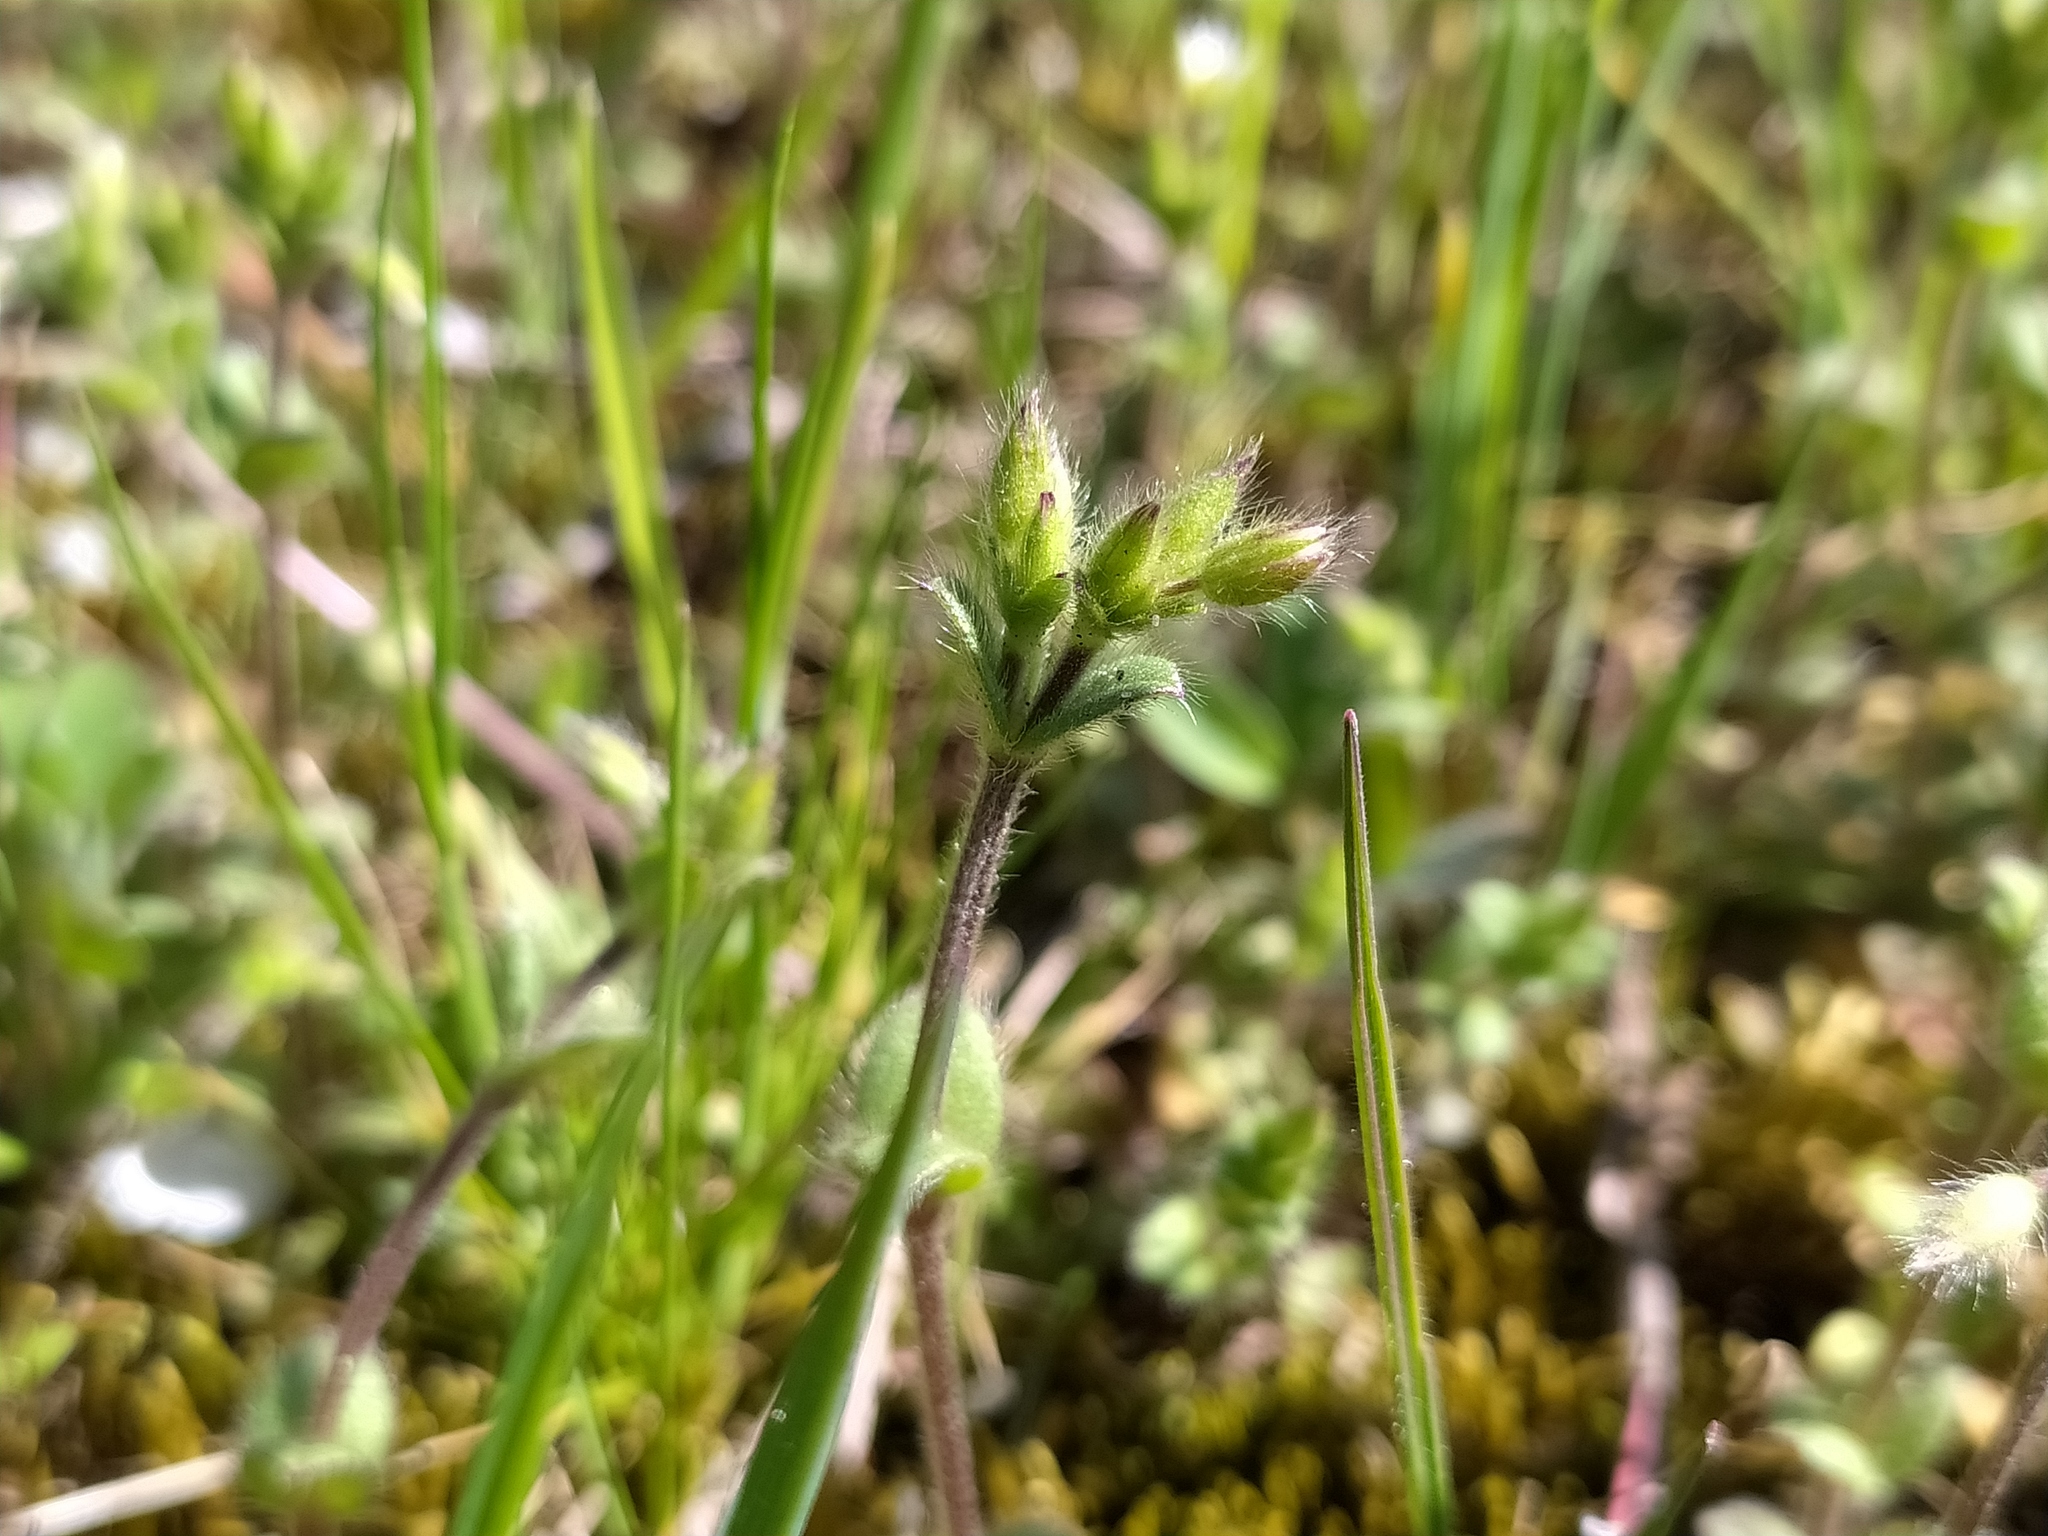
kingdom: Plantae
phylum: Tracheophyta
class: Magnoliopsida
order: Caryophyllales
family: Caryophyllaceae
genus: Cerastium
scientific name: Cerastium brachypetalum
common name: Grey mouse-ear
